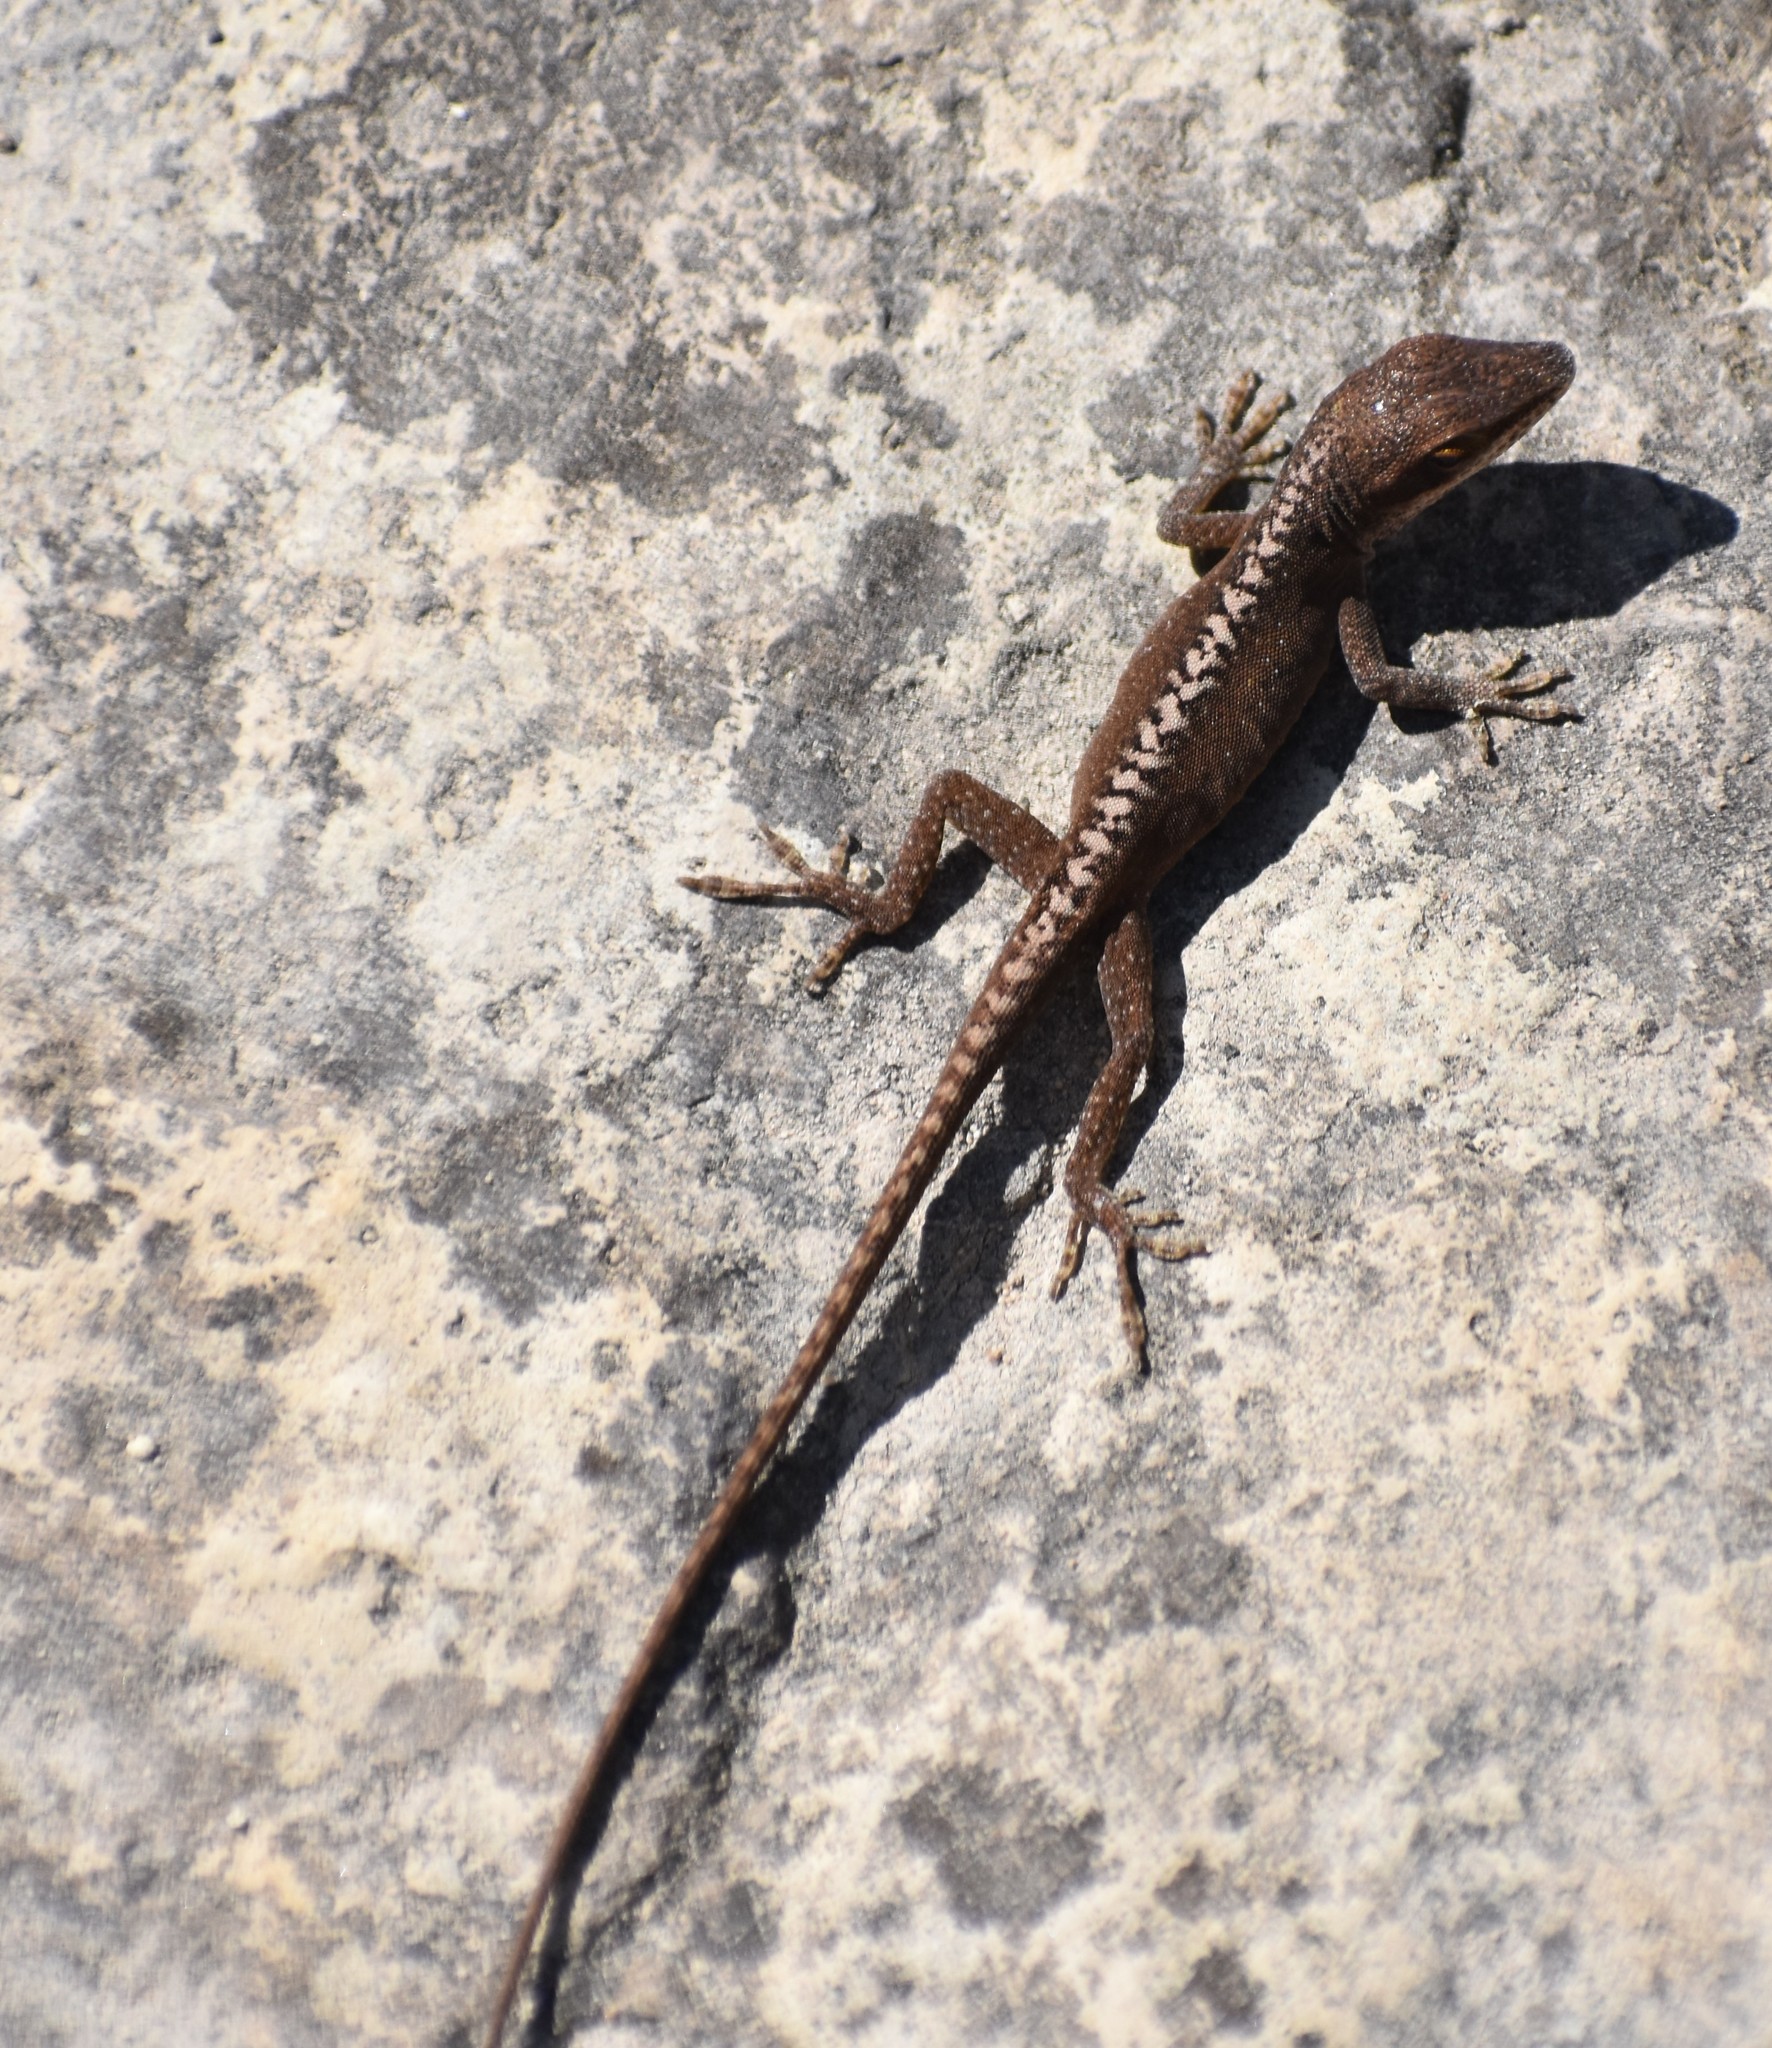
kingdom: Animalia
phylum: Chordata
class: Squamata
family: Dactyloidae
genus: Anolis
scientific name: Anolis carolinensis
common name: Green anole
